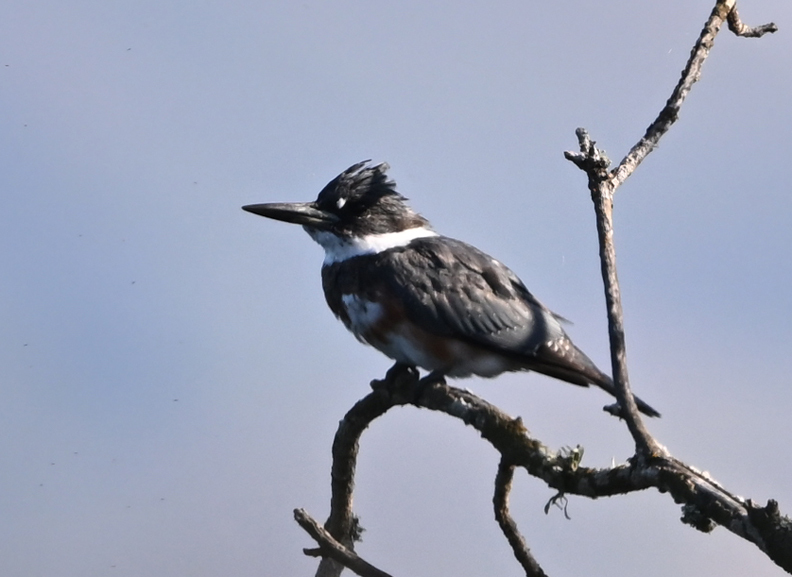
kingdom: Animalia
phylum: Chordata
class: Aves
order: Coraciiformes
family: Alcedinidae
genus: Megaceryle
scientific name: Megaceryle alcyon
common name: Belted kingfisher
